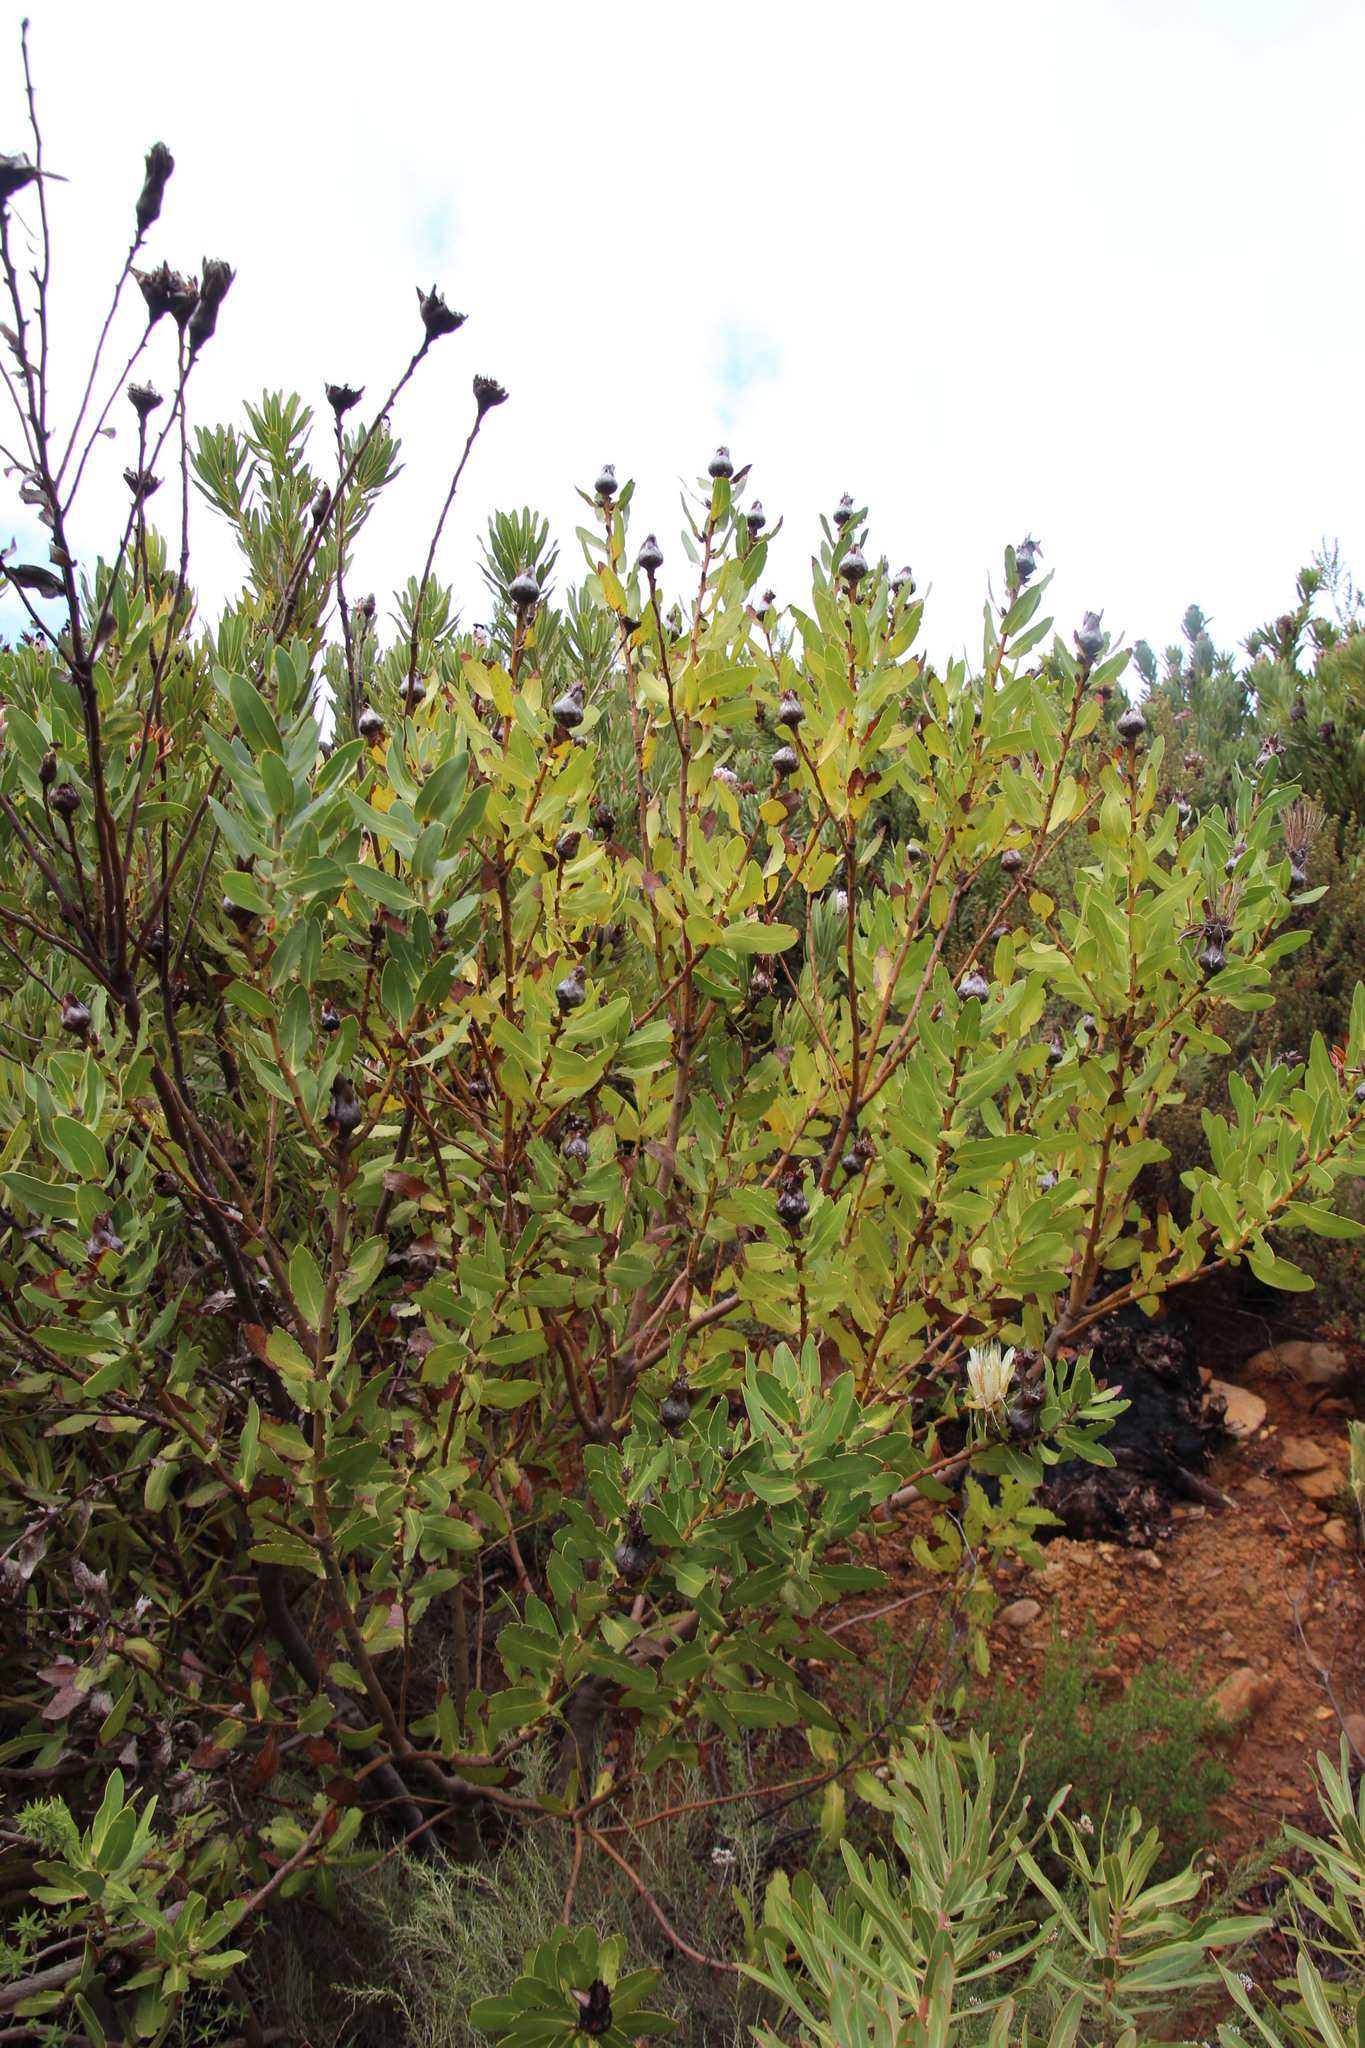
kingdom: Plantae
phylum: Tracheophyta
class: Magnoliopsida
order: Proteales
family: Proteaceae
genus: Protea
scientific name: Protea aurea
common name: Shuttlecock sugarbush
